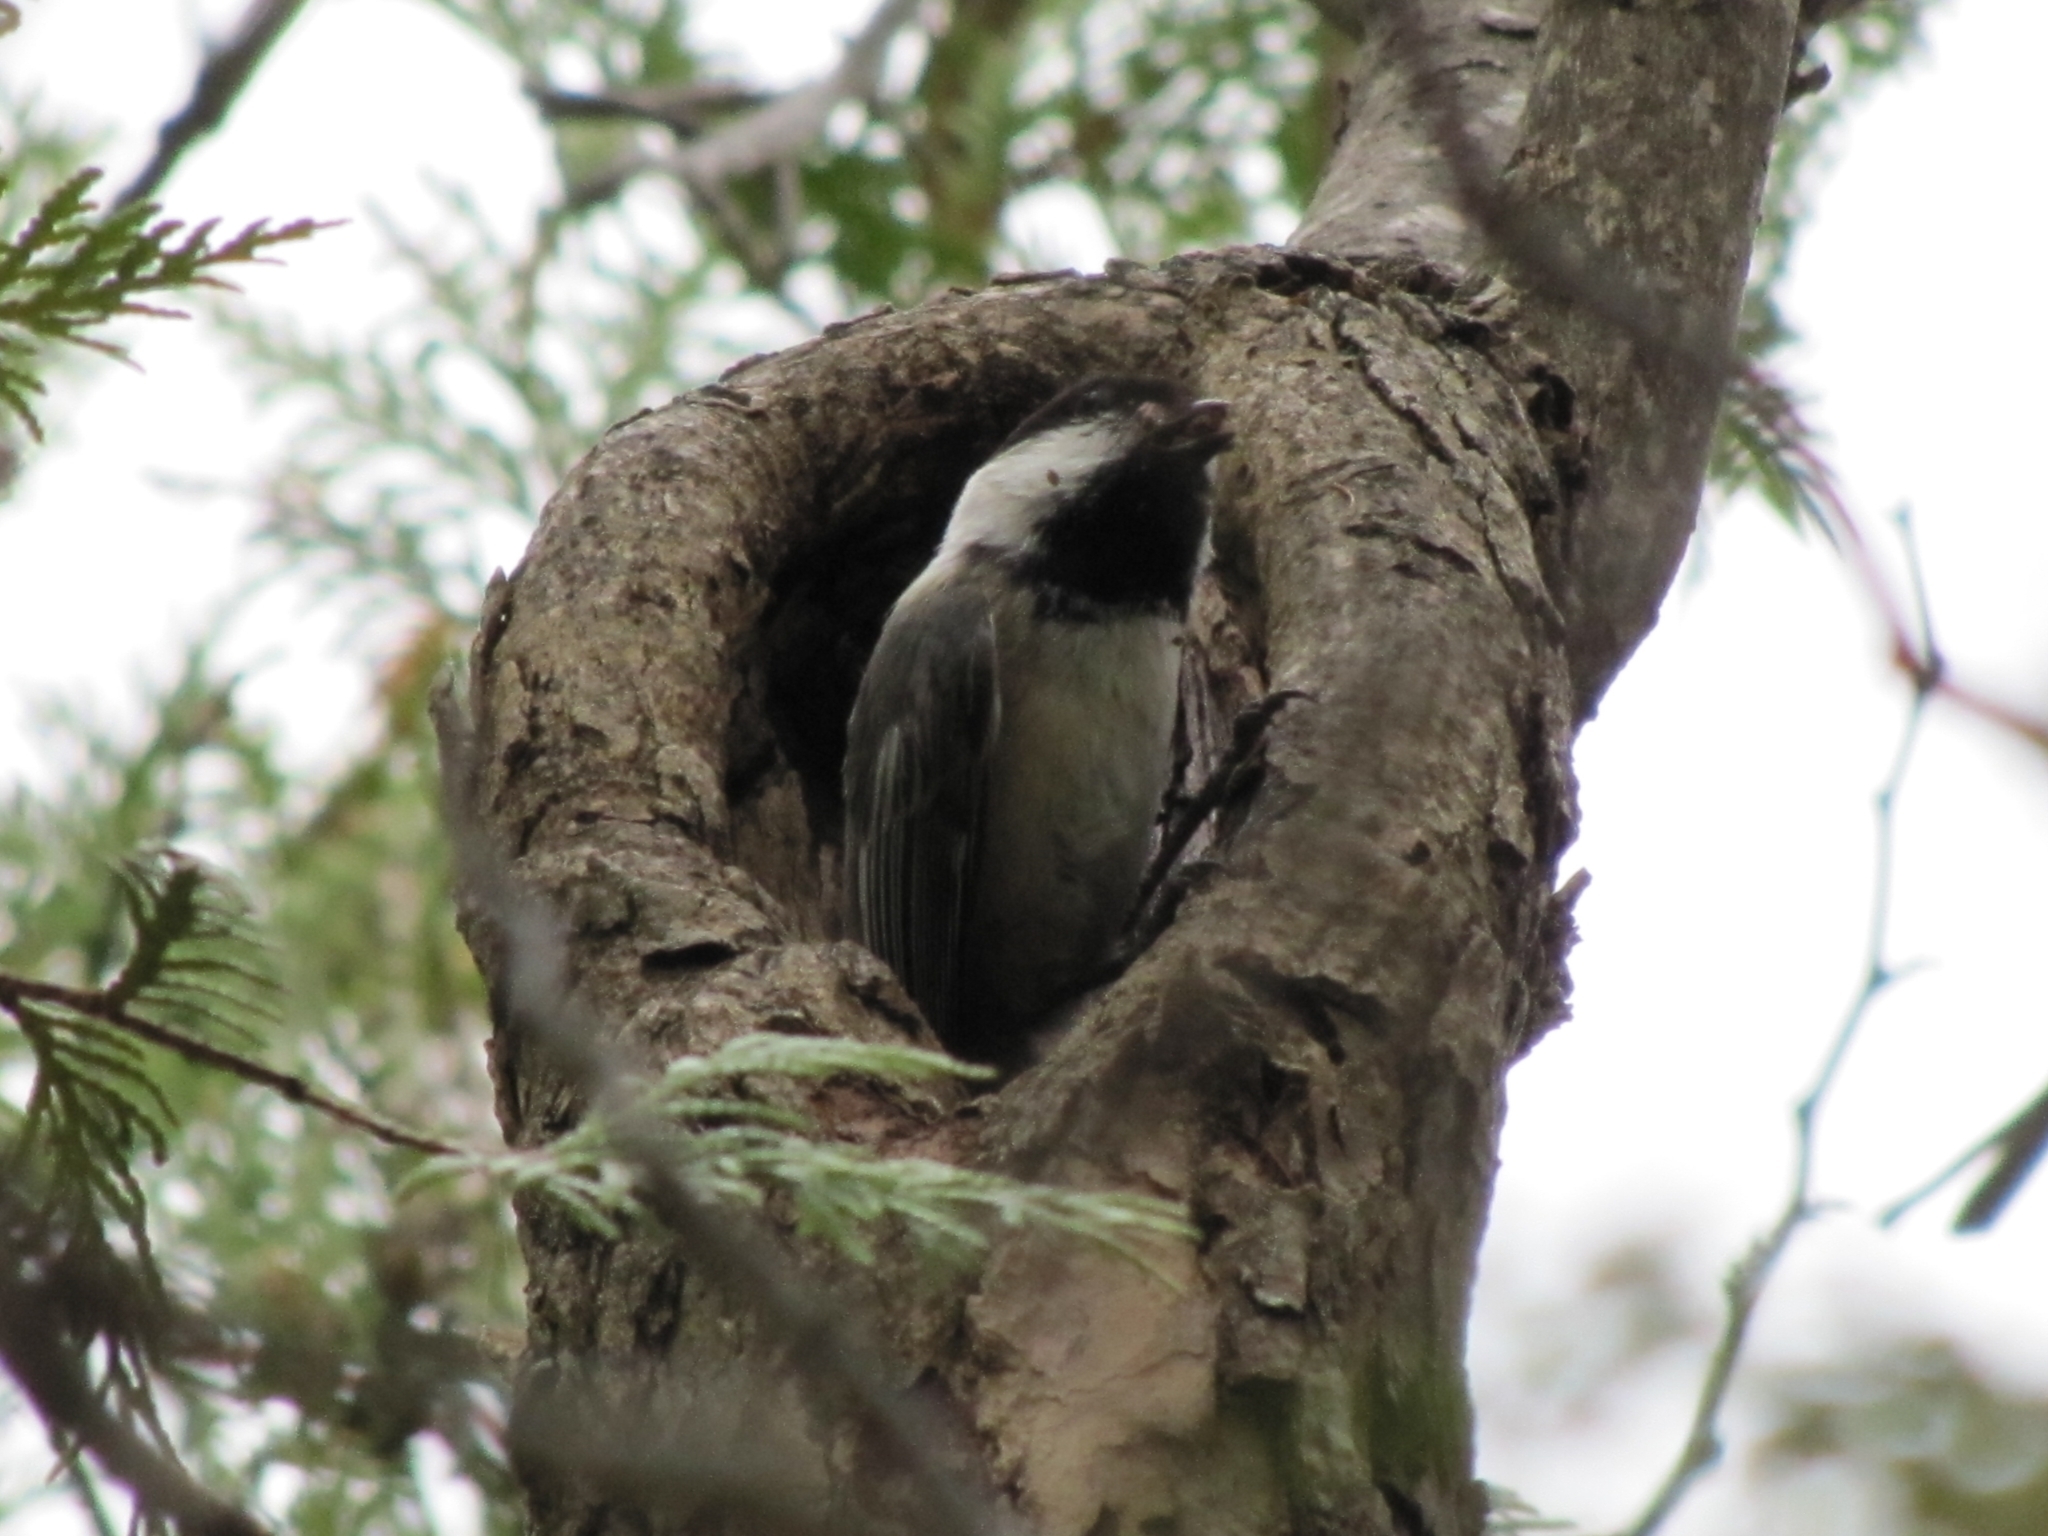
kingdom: Animalia
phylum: Chordata
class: Aves
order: Passeriformes
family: Paridae
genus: Poecile
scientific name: Poecile atricapillus
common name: Black-capped chickadee
